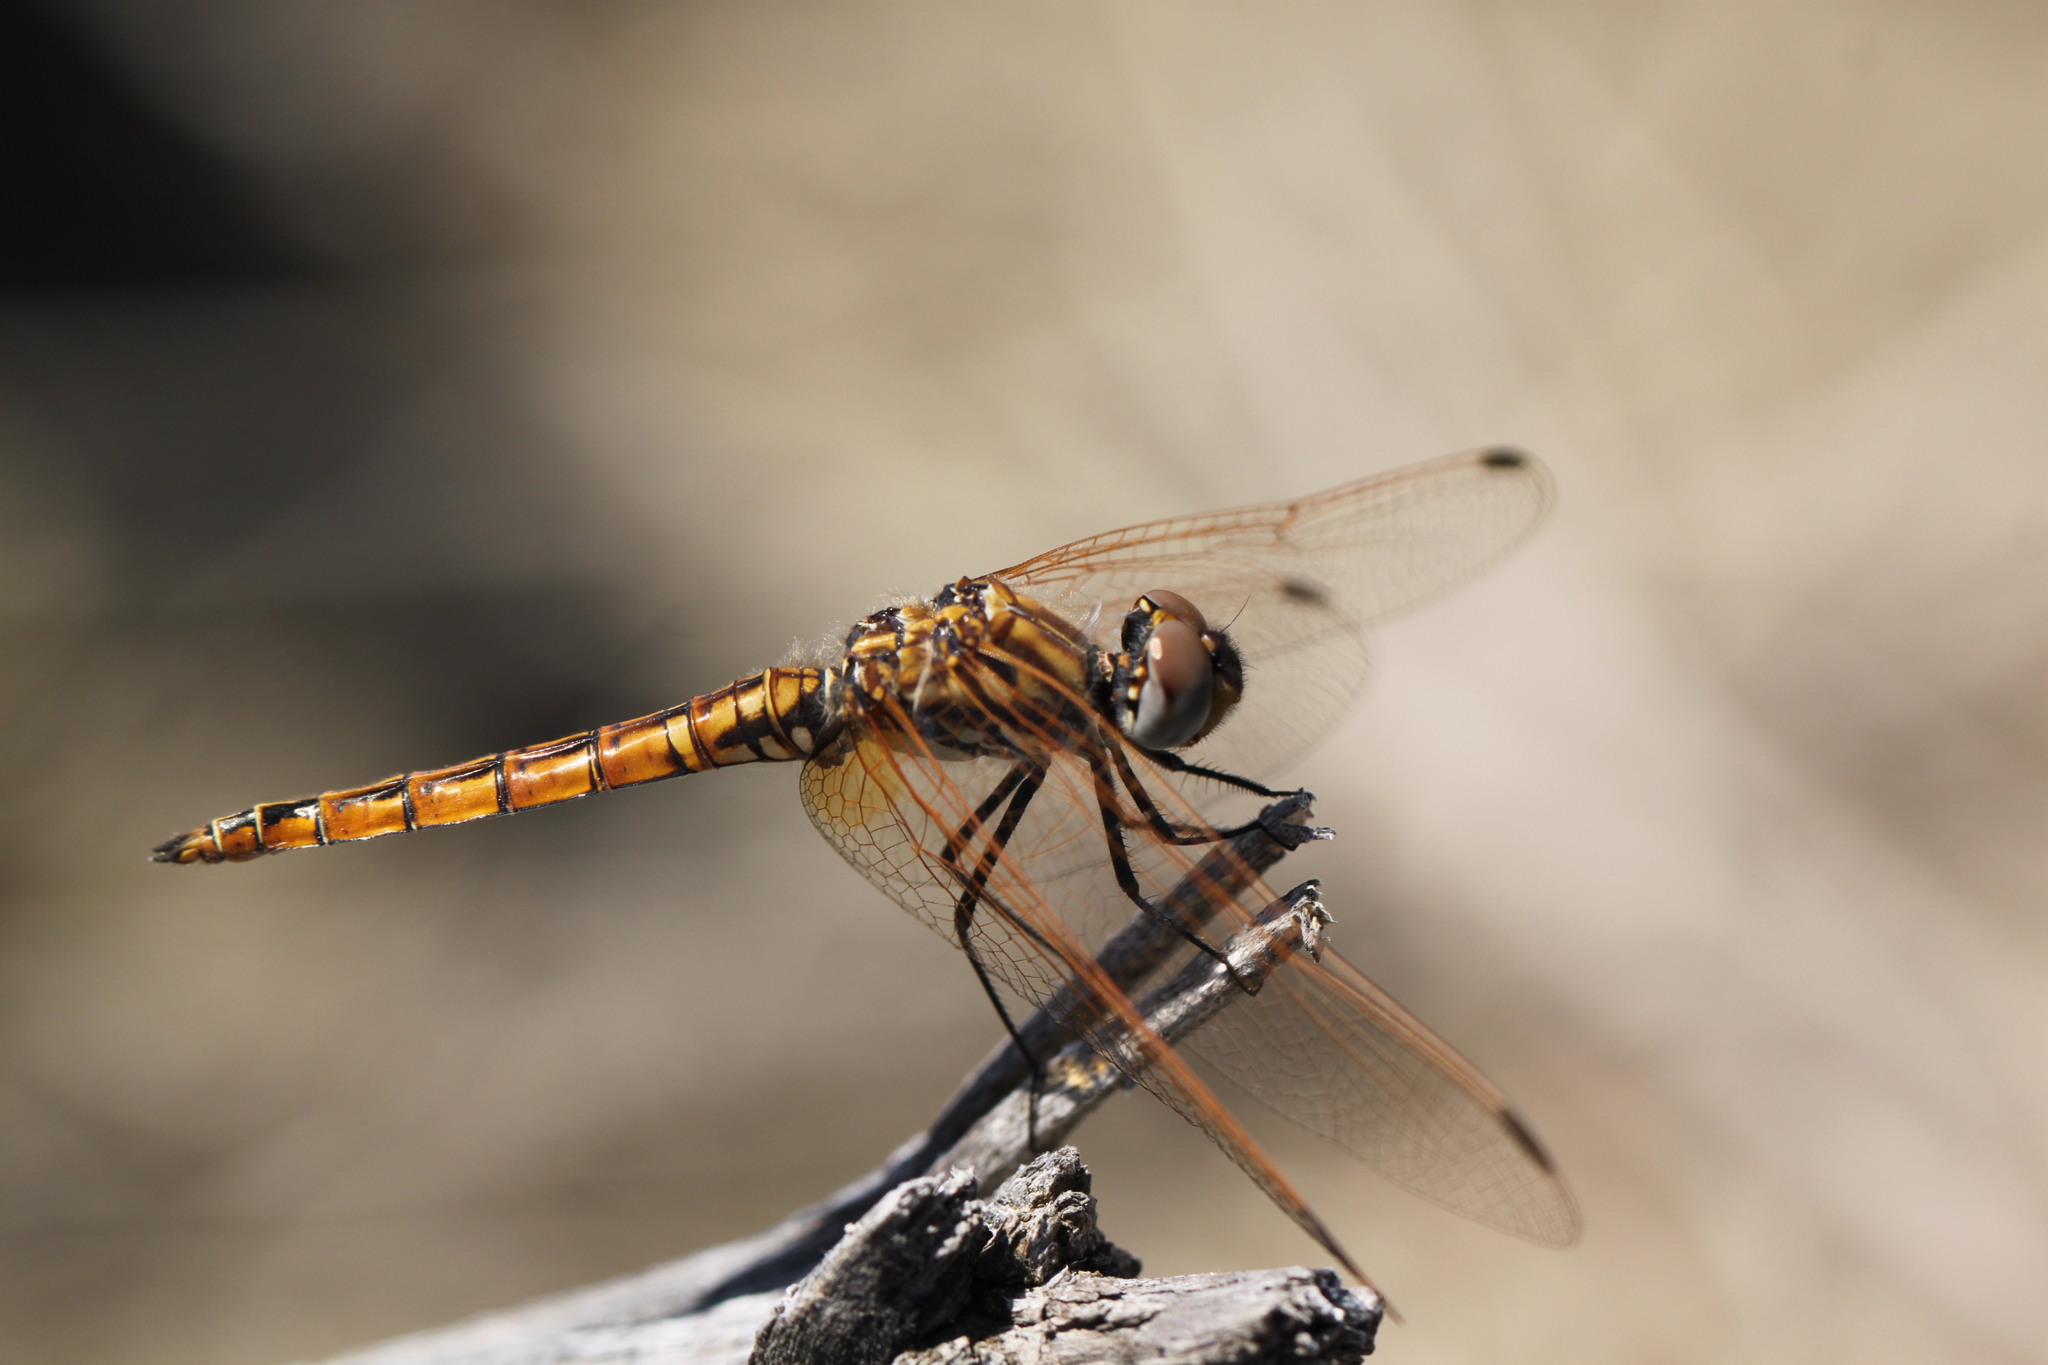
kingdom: Animalia
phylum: Arthropoda
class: Insecta
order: Odonata
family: Libellulidae
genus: Trithemis
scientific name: Trithemis annulata
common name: Violet dropwing
